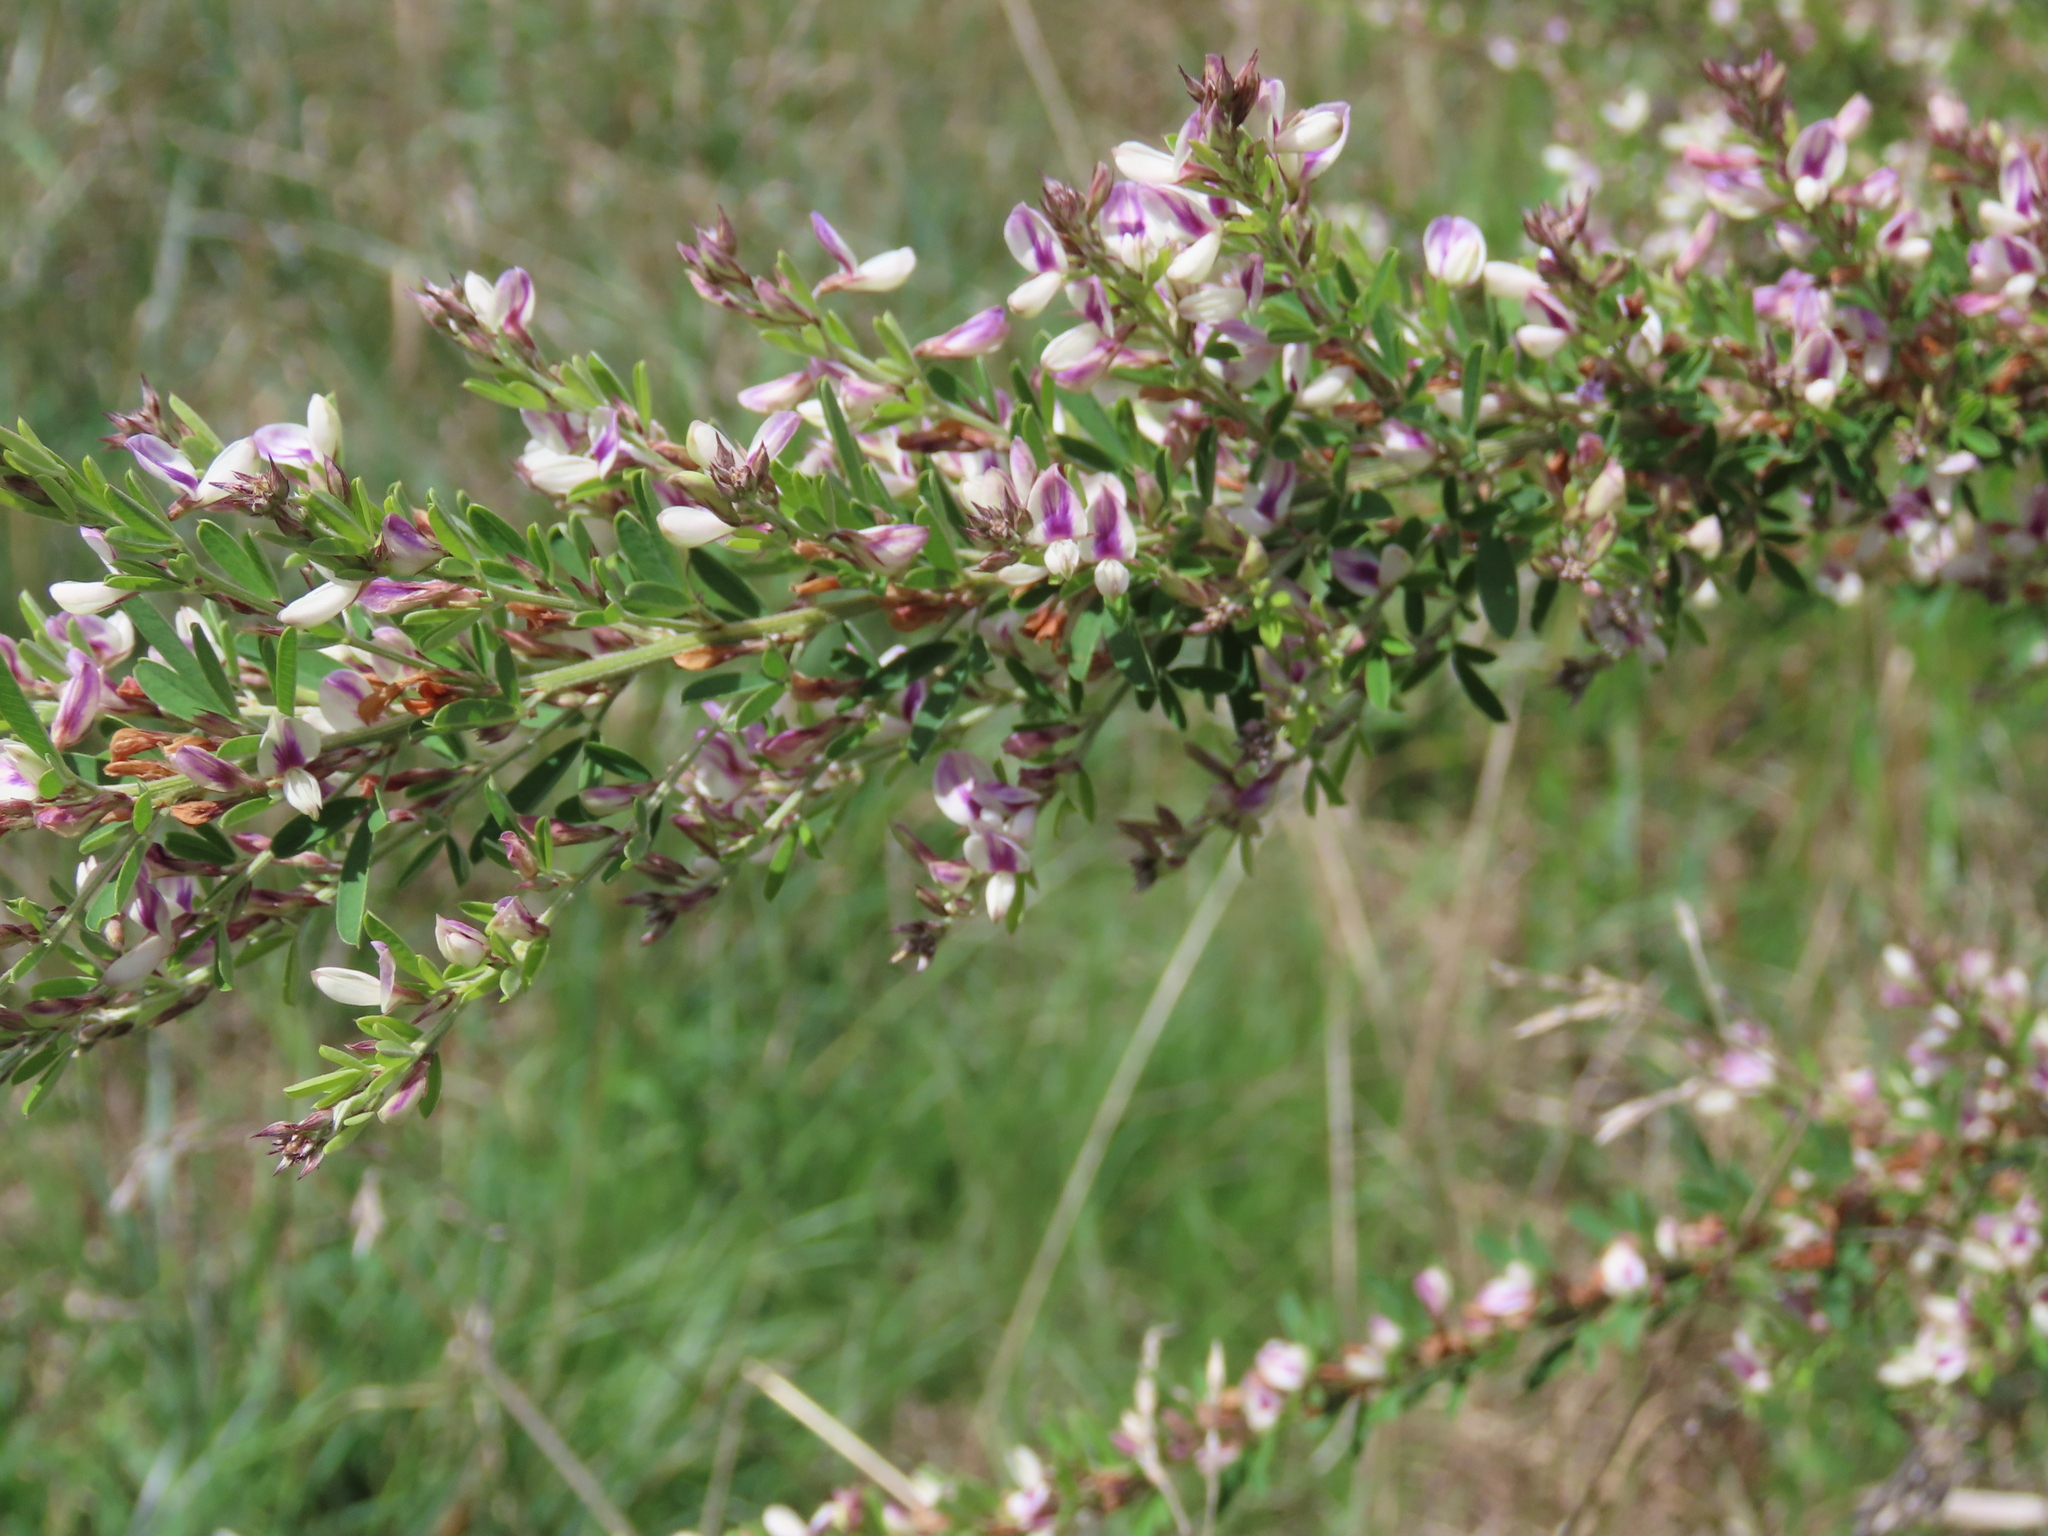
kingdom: Plantae
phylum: Tracheophyta
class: Magnoliopsida
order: Fabales
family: Fabaceae
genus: Lespedeza
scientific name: Lespedeza cuneata
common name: Chinese bush-clover
